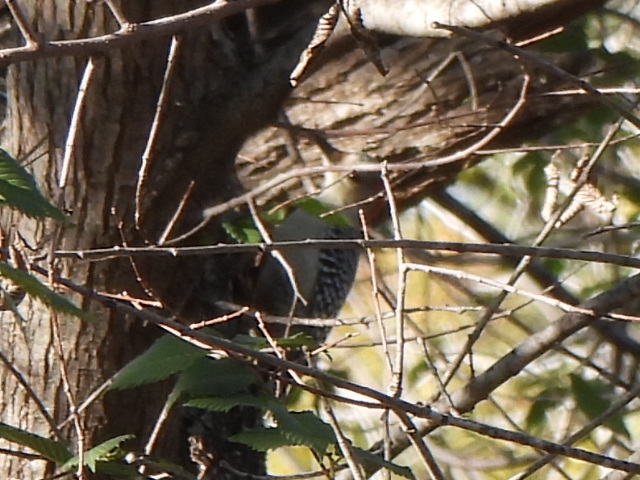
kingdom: Animalia
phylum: Chordata
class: Aves
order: Piciformes
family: Picidae
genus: Melanerpes
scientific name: Melanerpes carolinus
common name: Red-bellied woodpecker
